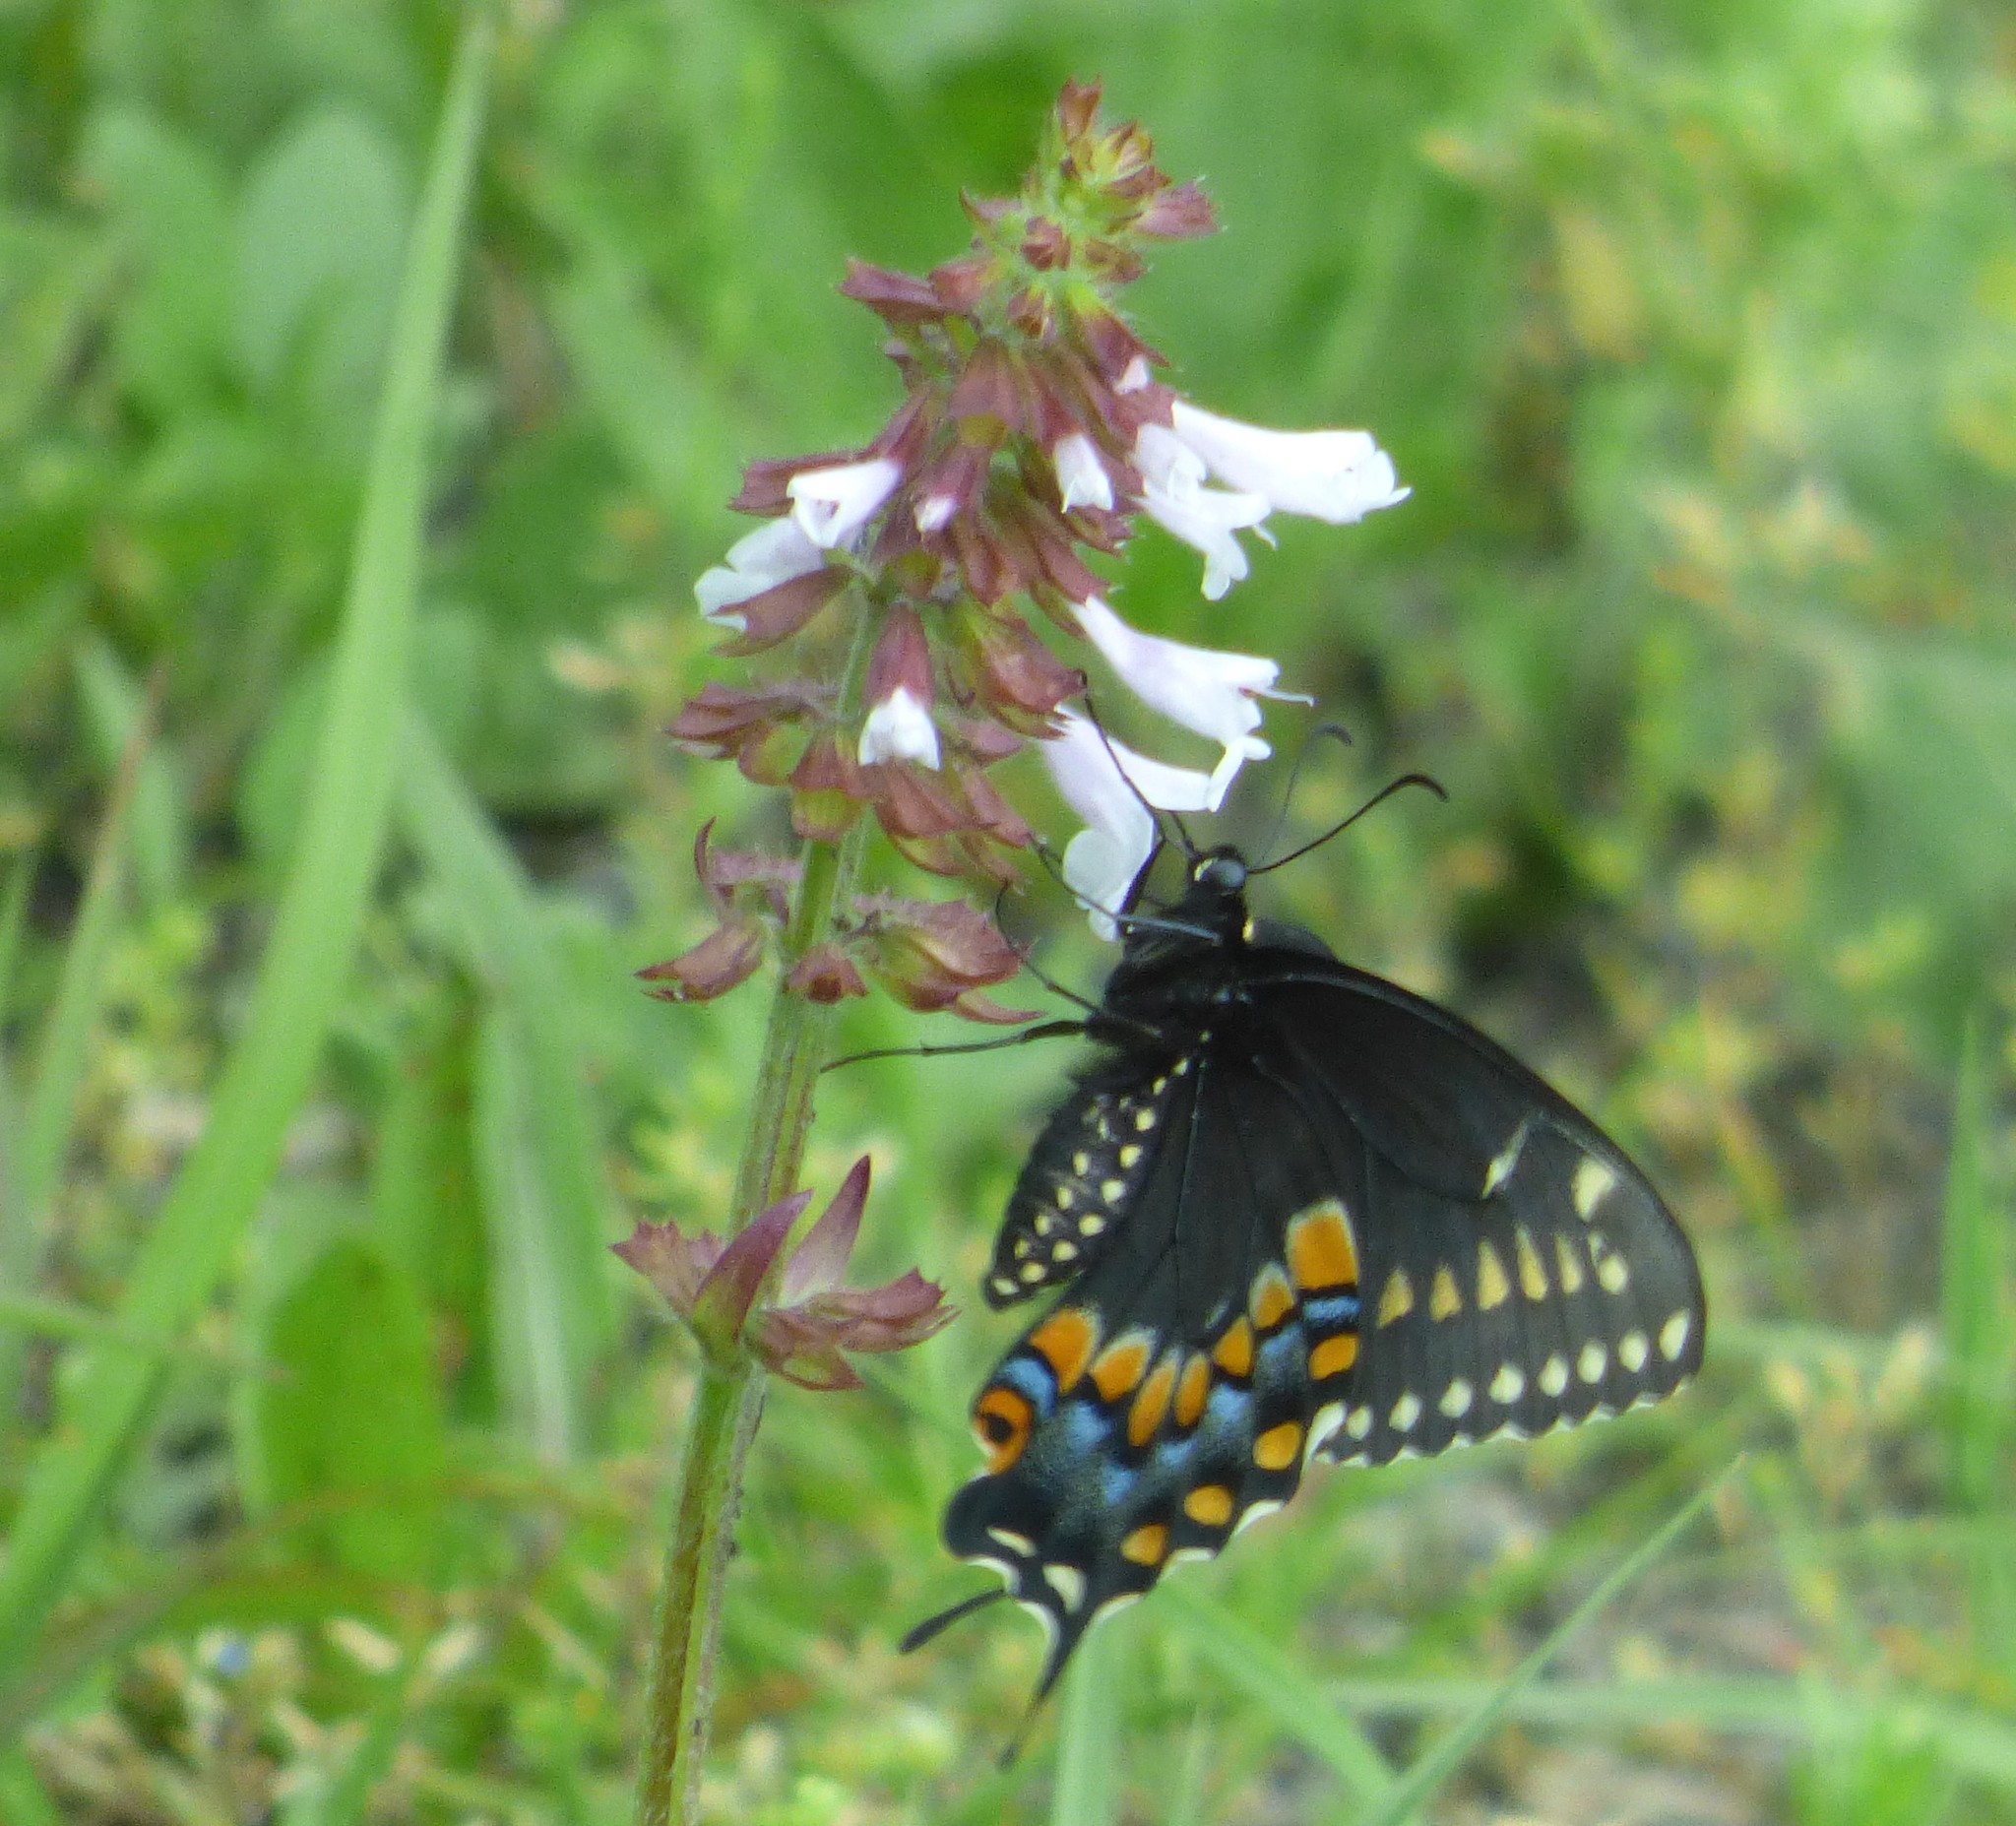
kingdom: Animalia
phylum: Arthropoda
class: Insecta
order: Lepidoptera
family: Papilionidae
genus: Papilio
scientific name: Papilio polyxenes
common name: Black swallowtail
